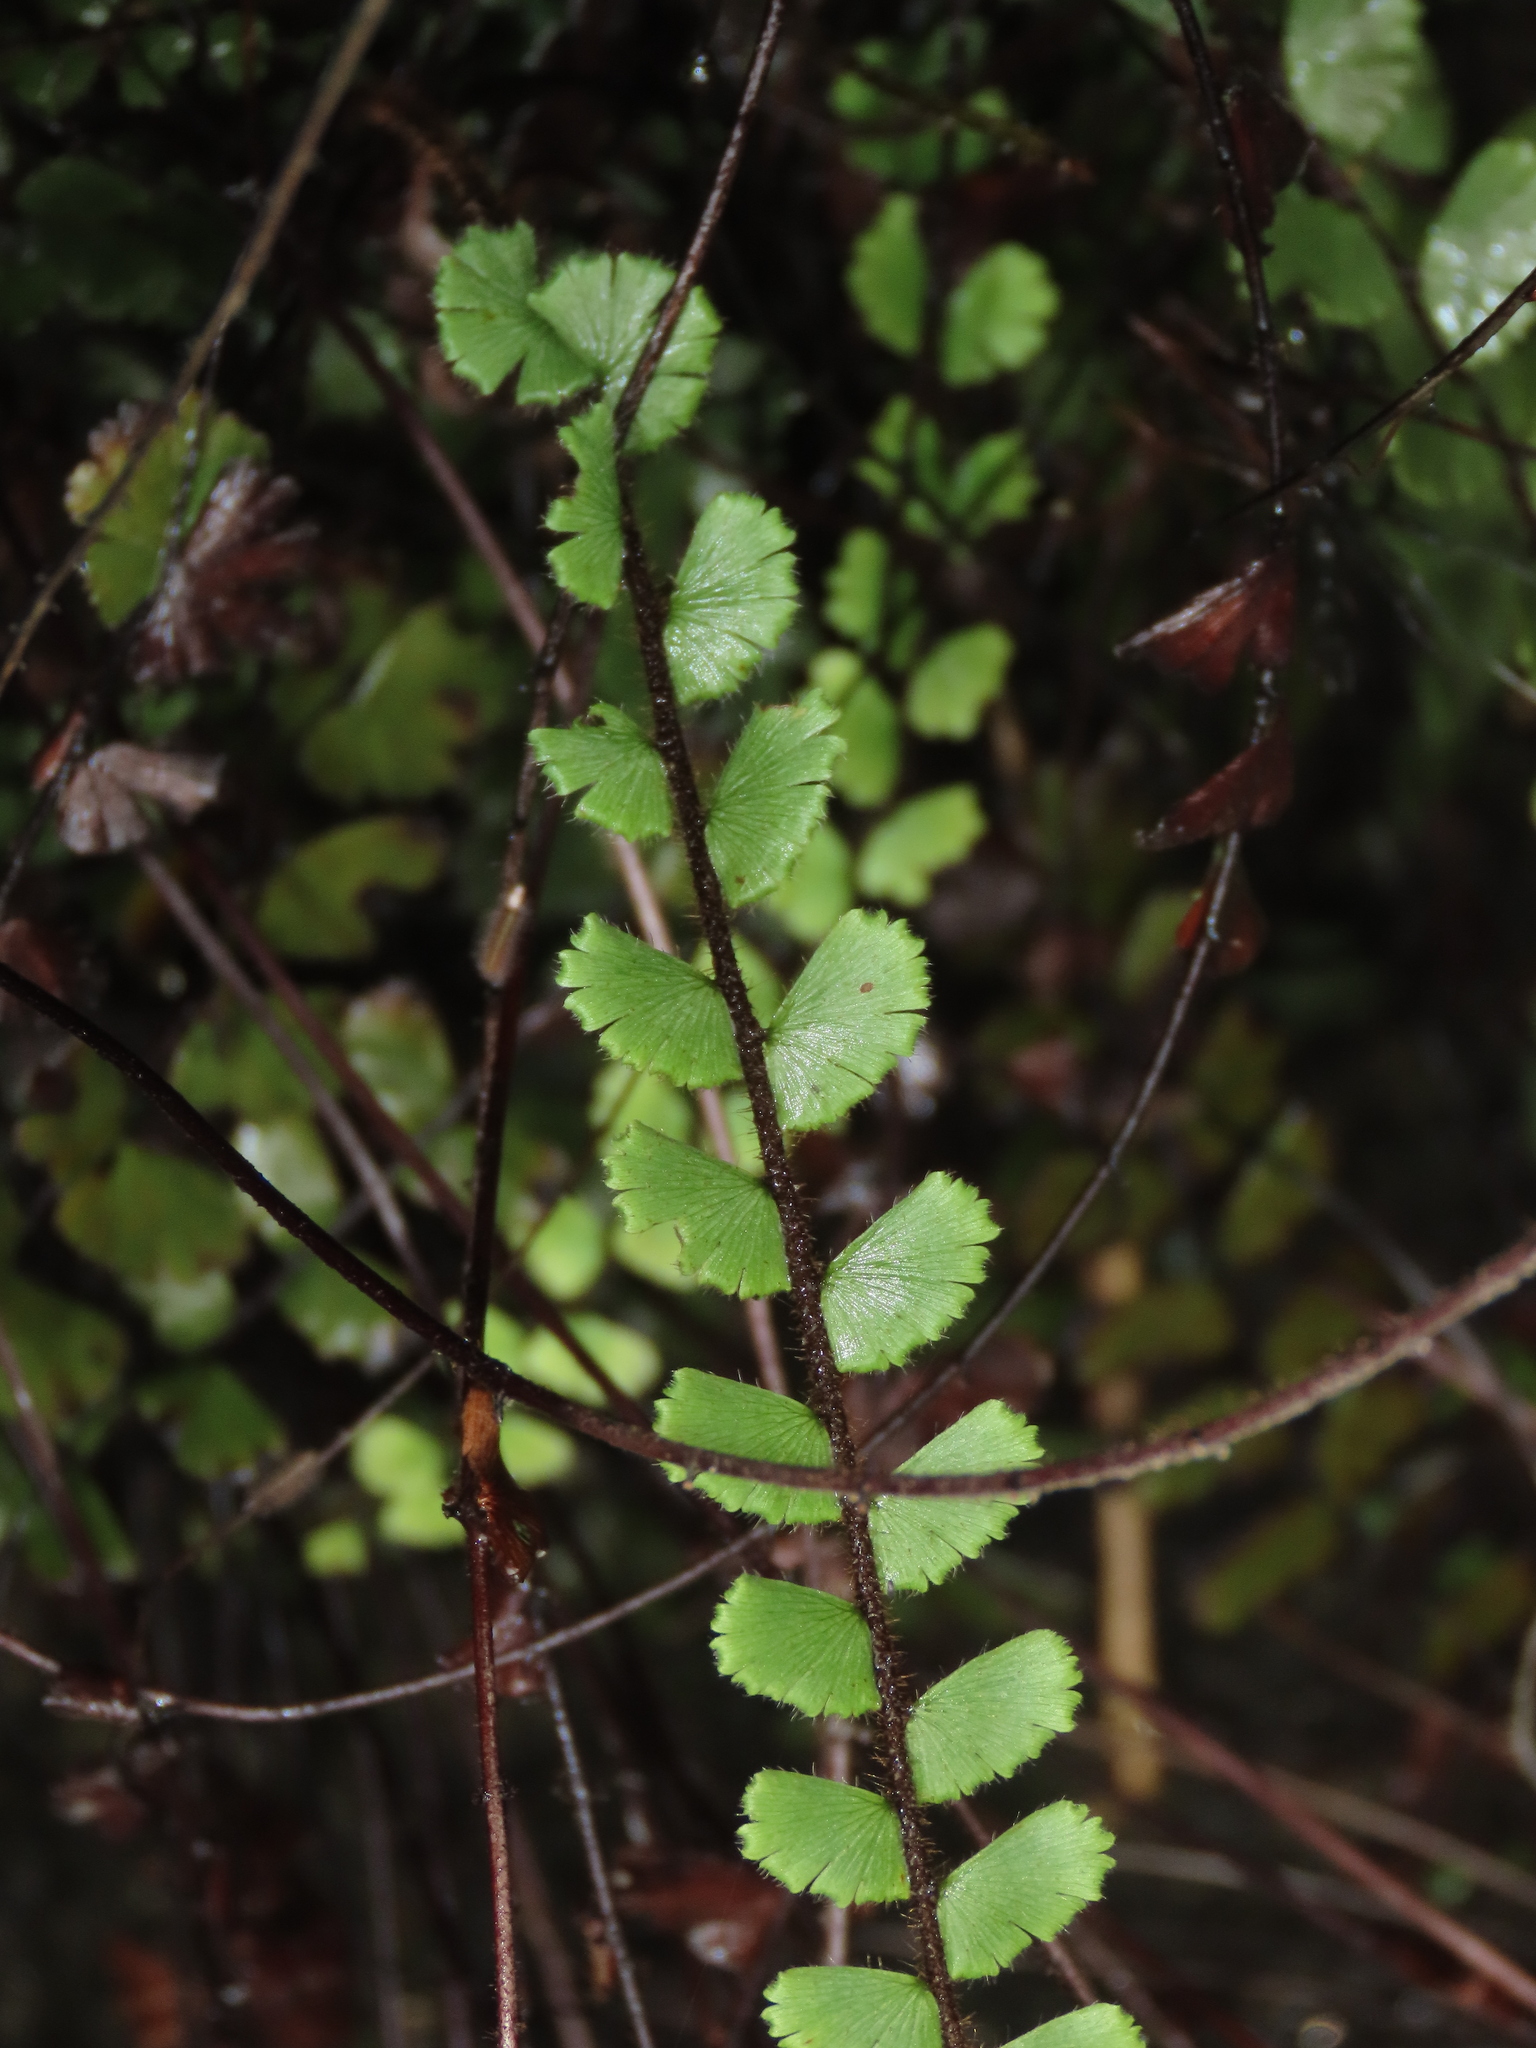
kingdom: Plantae
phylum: Tracheophyta
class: Polypodiopsida
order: Polypodiales
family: Pteridaceae
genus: Adiantum
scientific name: Adiantum ciliatum
